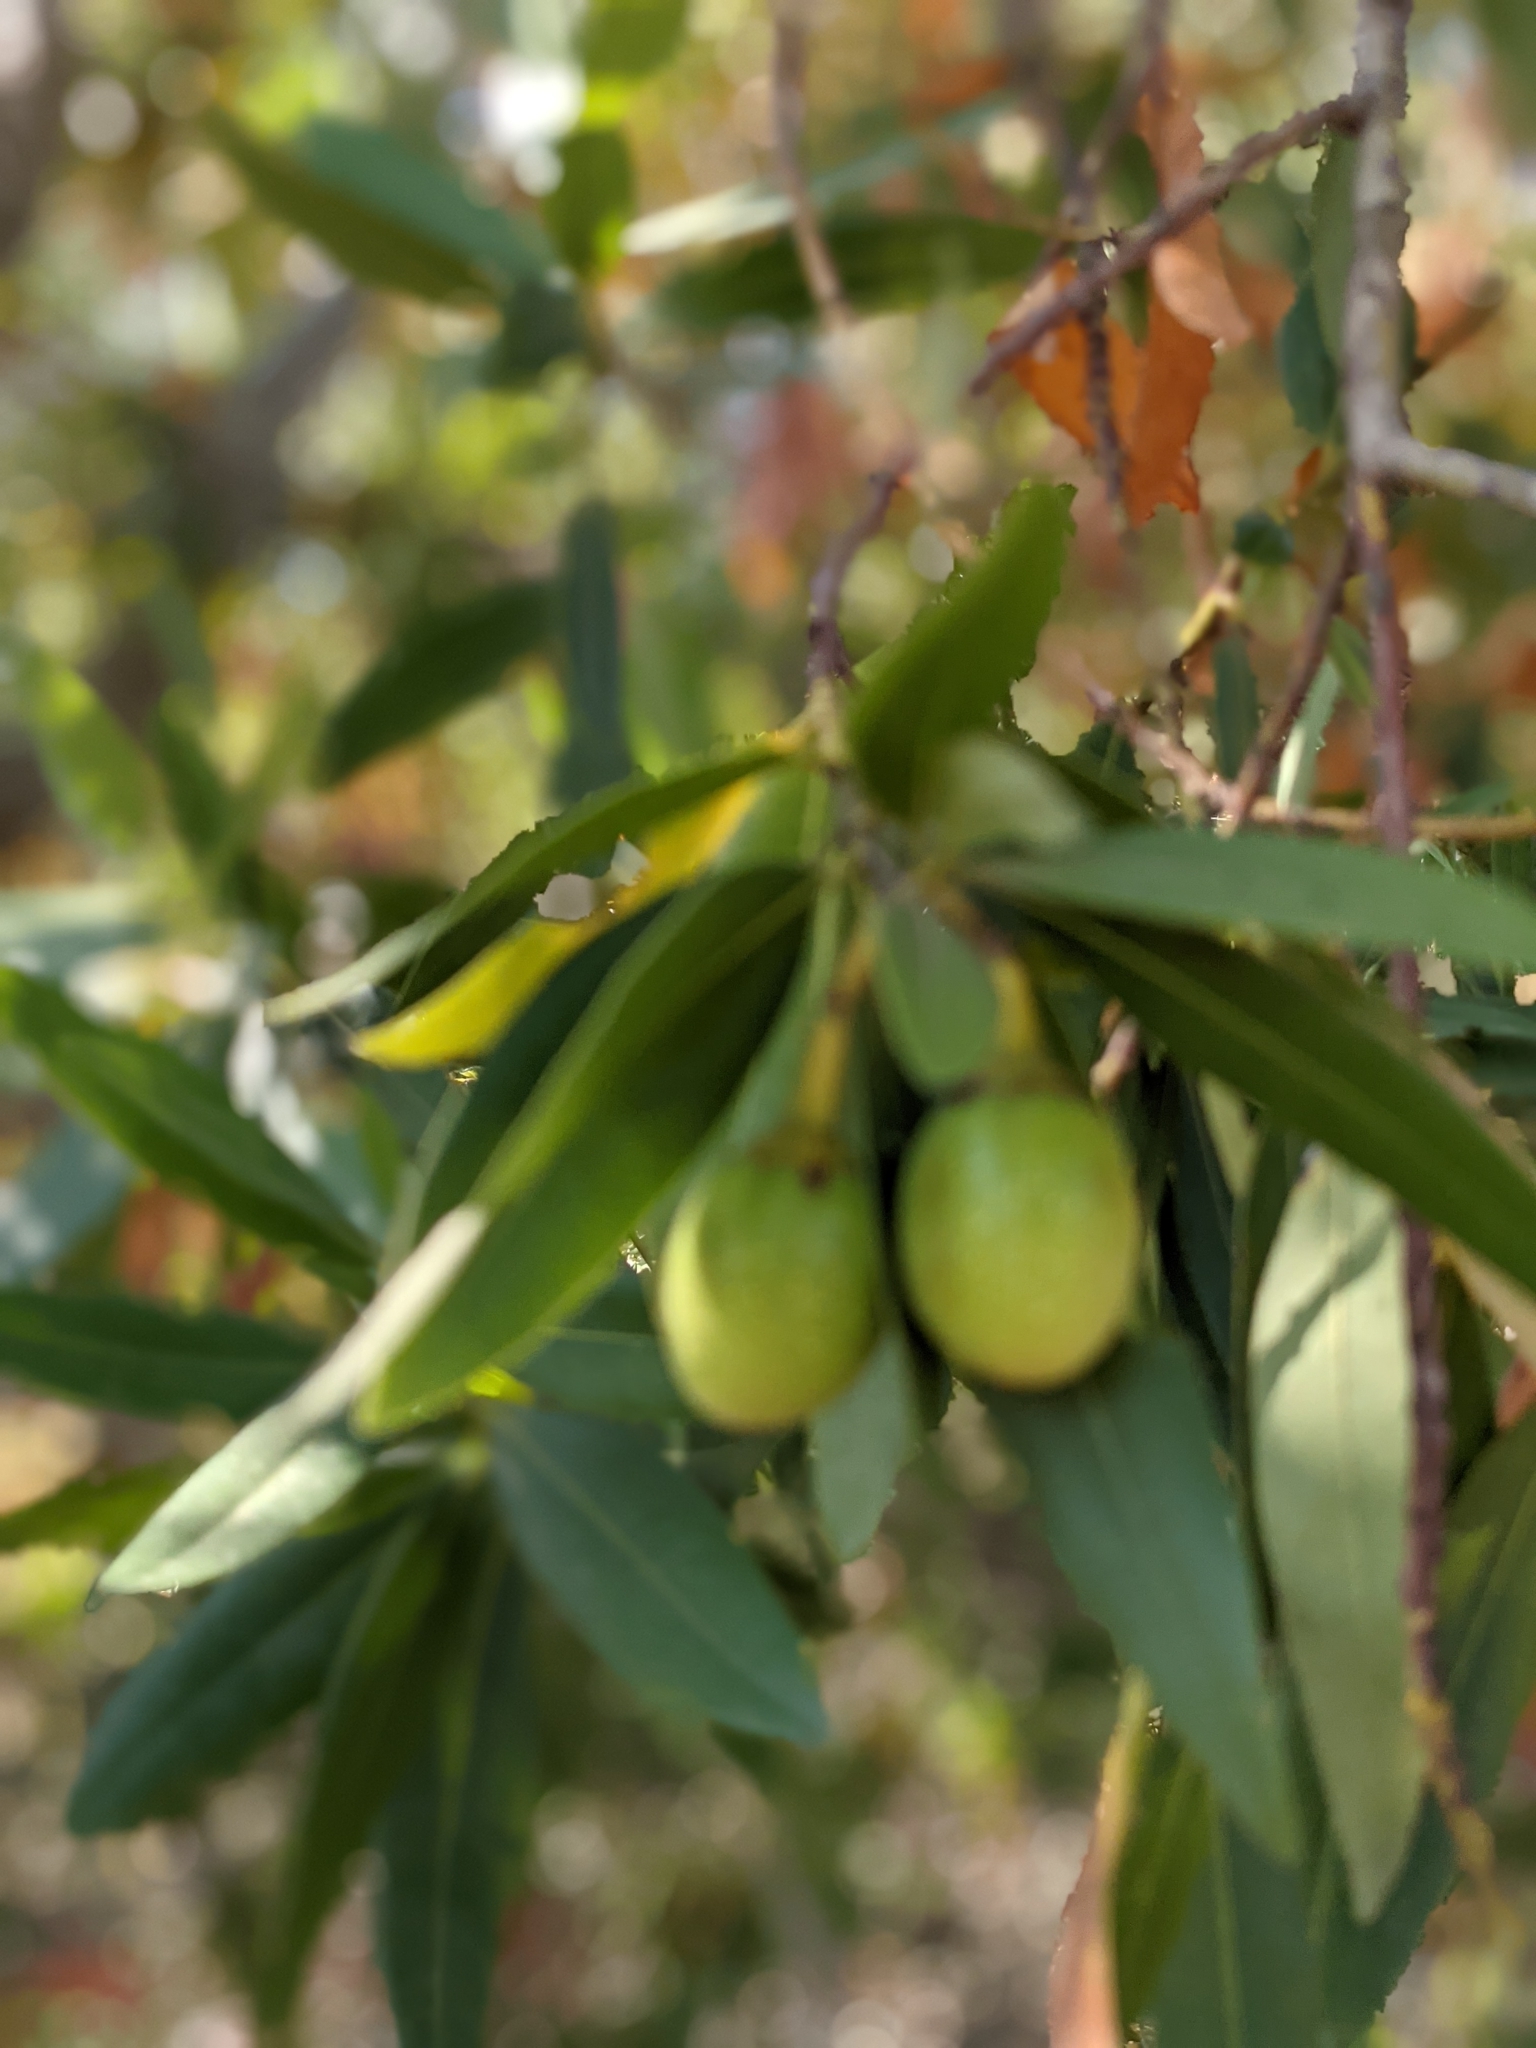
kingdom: Plantae
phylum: Tracheophyta
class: Magnoliopsida
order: Laurales
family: Lauraceae
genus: Umbellularia
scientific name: Umbellularia californica
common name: California bay
